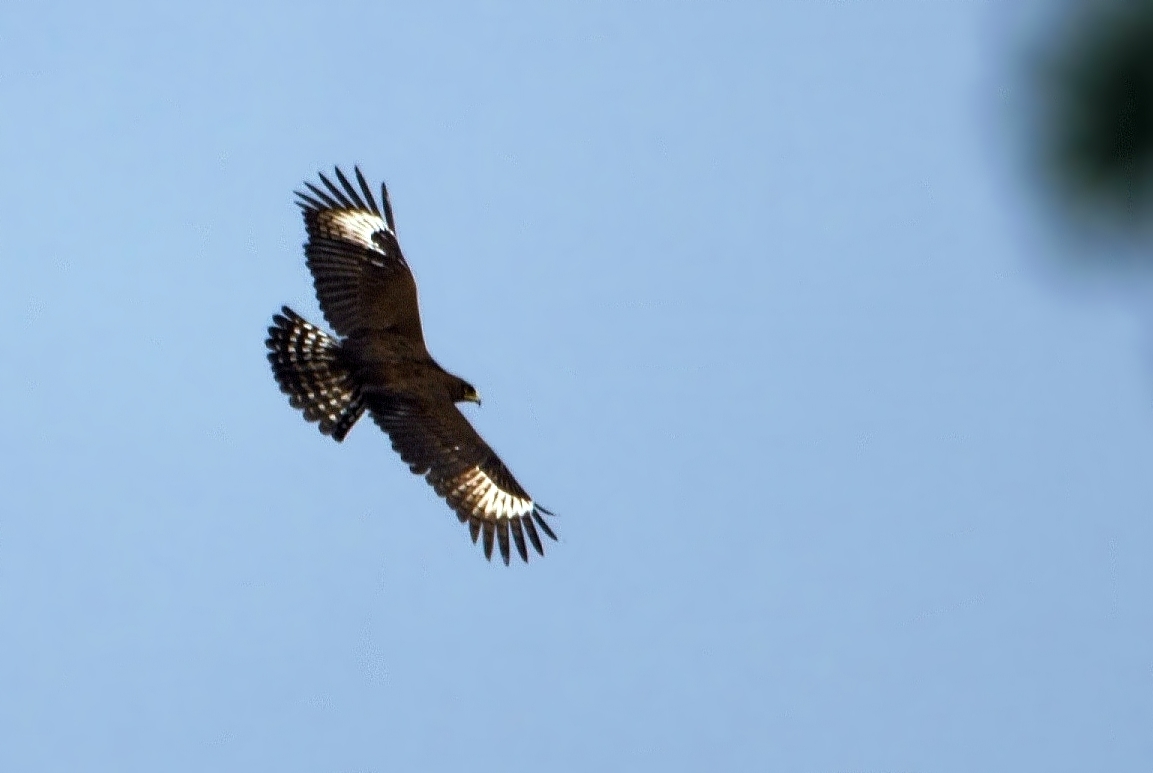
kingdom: Animalia
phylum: Chordata
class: Aves
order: Accipitriformes
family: Accipitridae
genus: Lophaetus
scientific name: Lophaetus occipitalis
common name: Long-crested eagle
